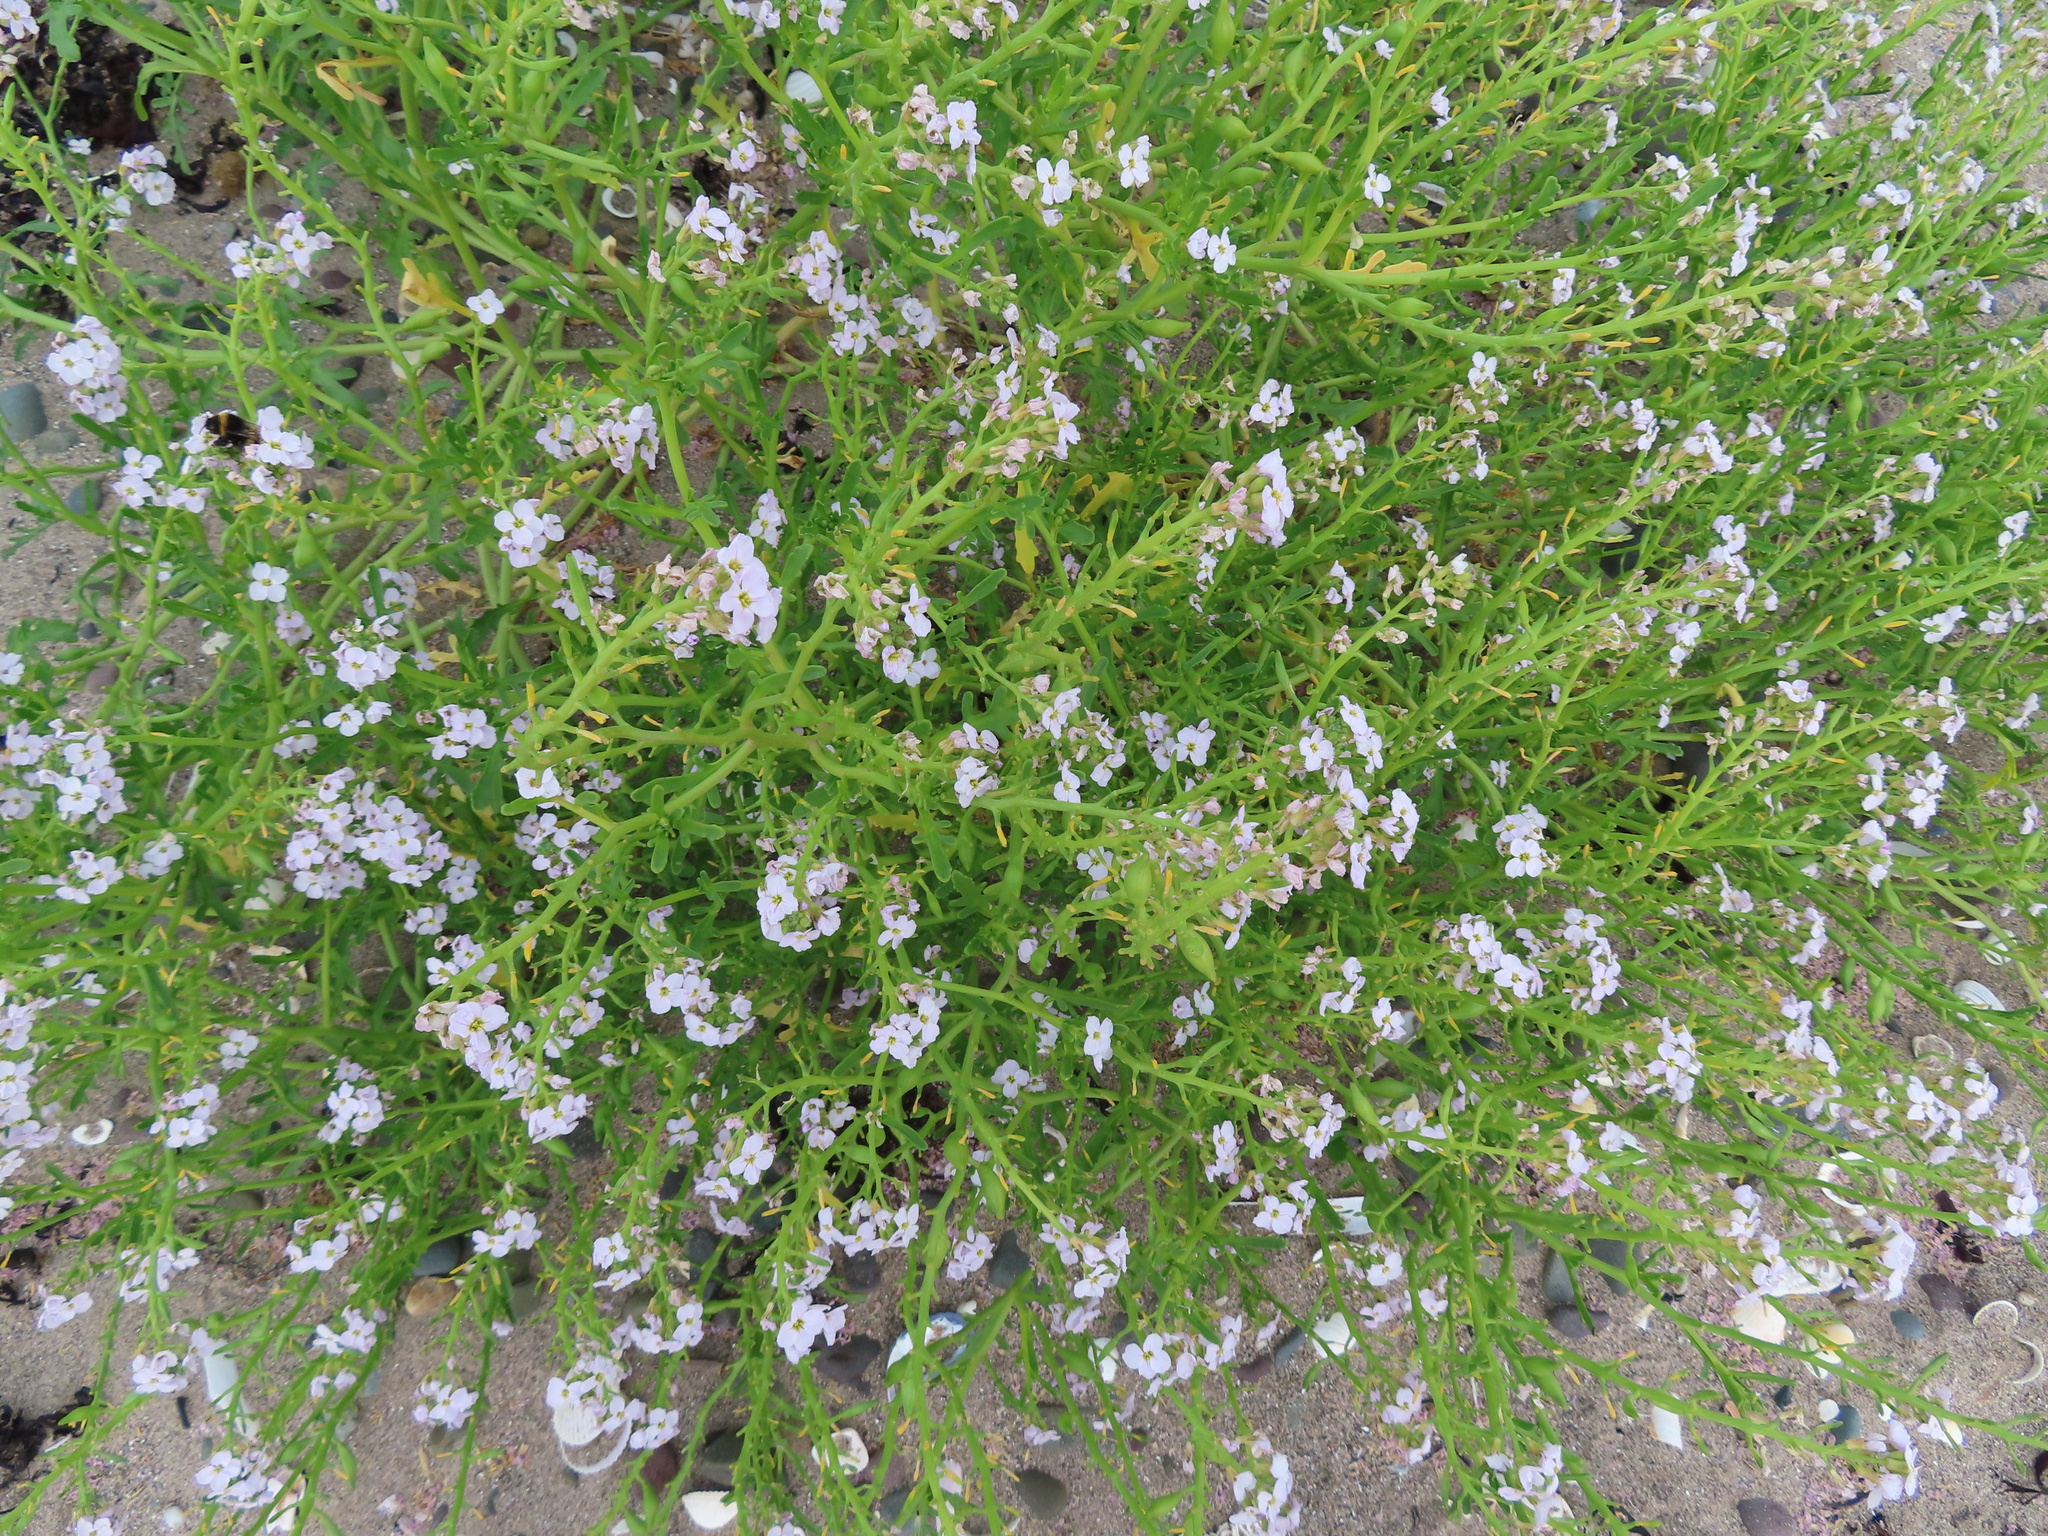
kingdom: Plantae
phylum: Tracheophyta
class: Magnoliopsida
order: Brassicales
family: Brassicaceae
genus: Cakile
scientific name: Cakile maritima
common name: Sea rocket
